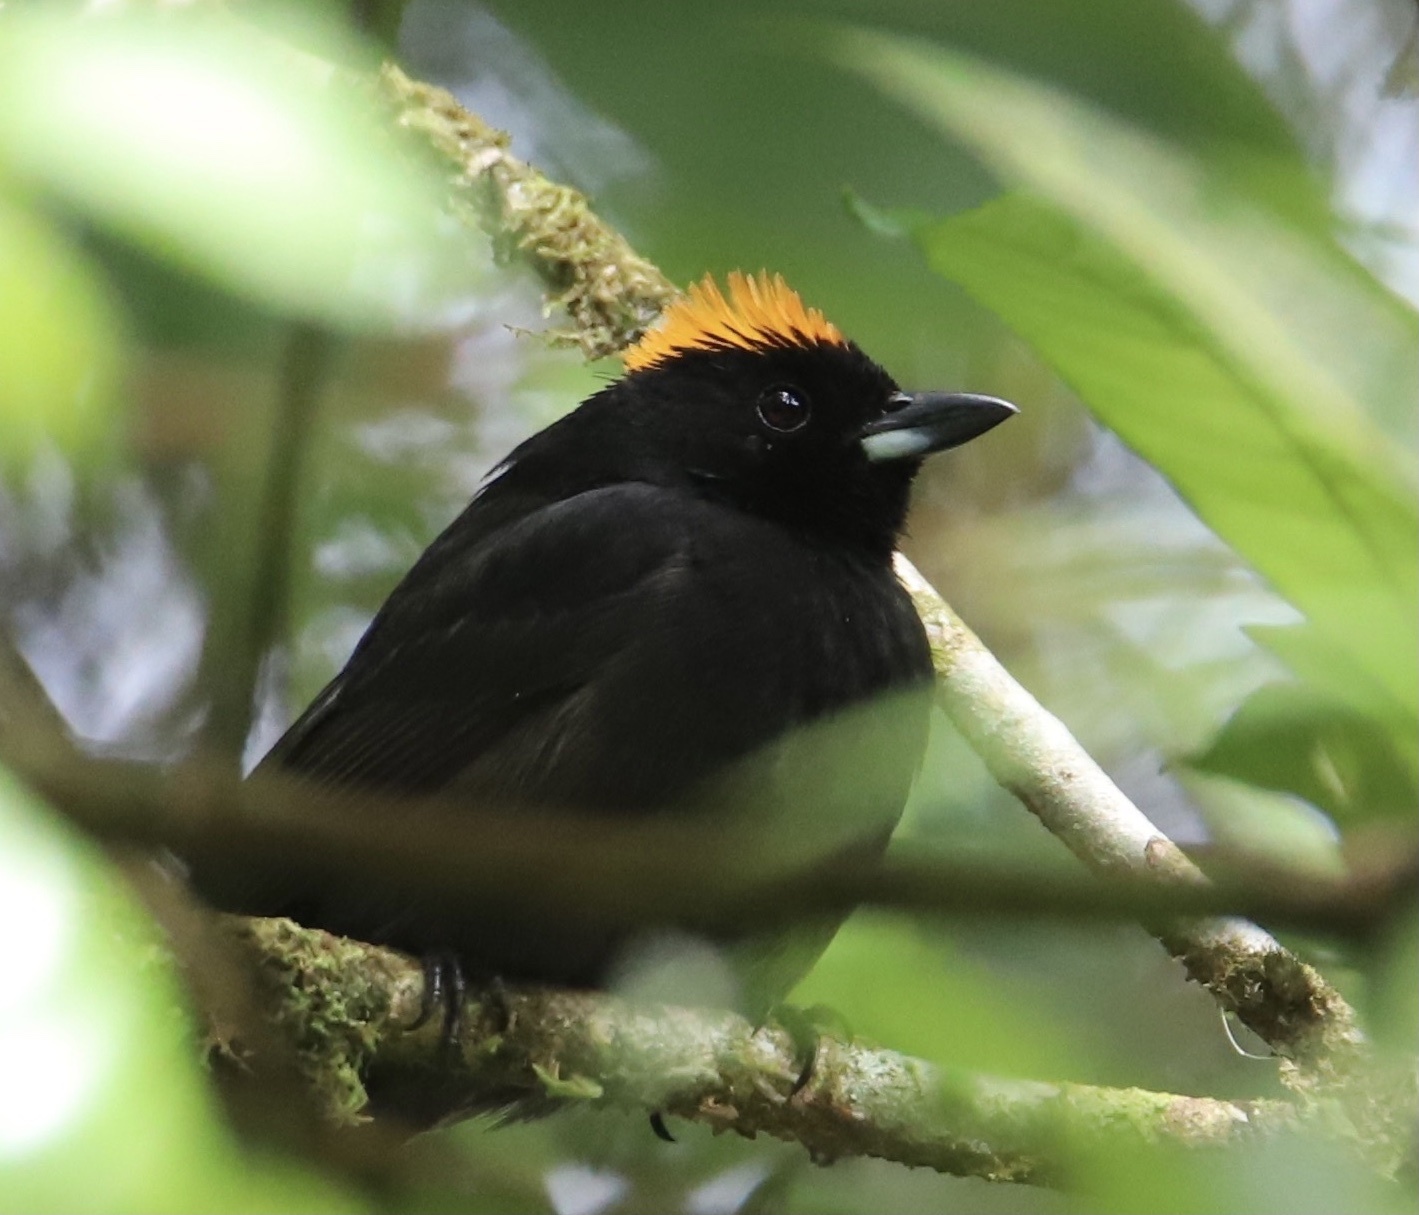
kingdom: Animalia
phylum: Chordata
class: Aves
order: Passeriformes
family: Thraupidae
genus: Tachyphonus
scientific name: Tachyphonus delatrii
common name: Tawny-crested tanager
